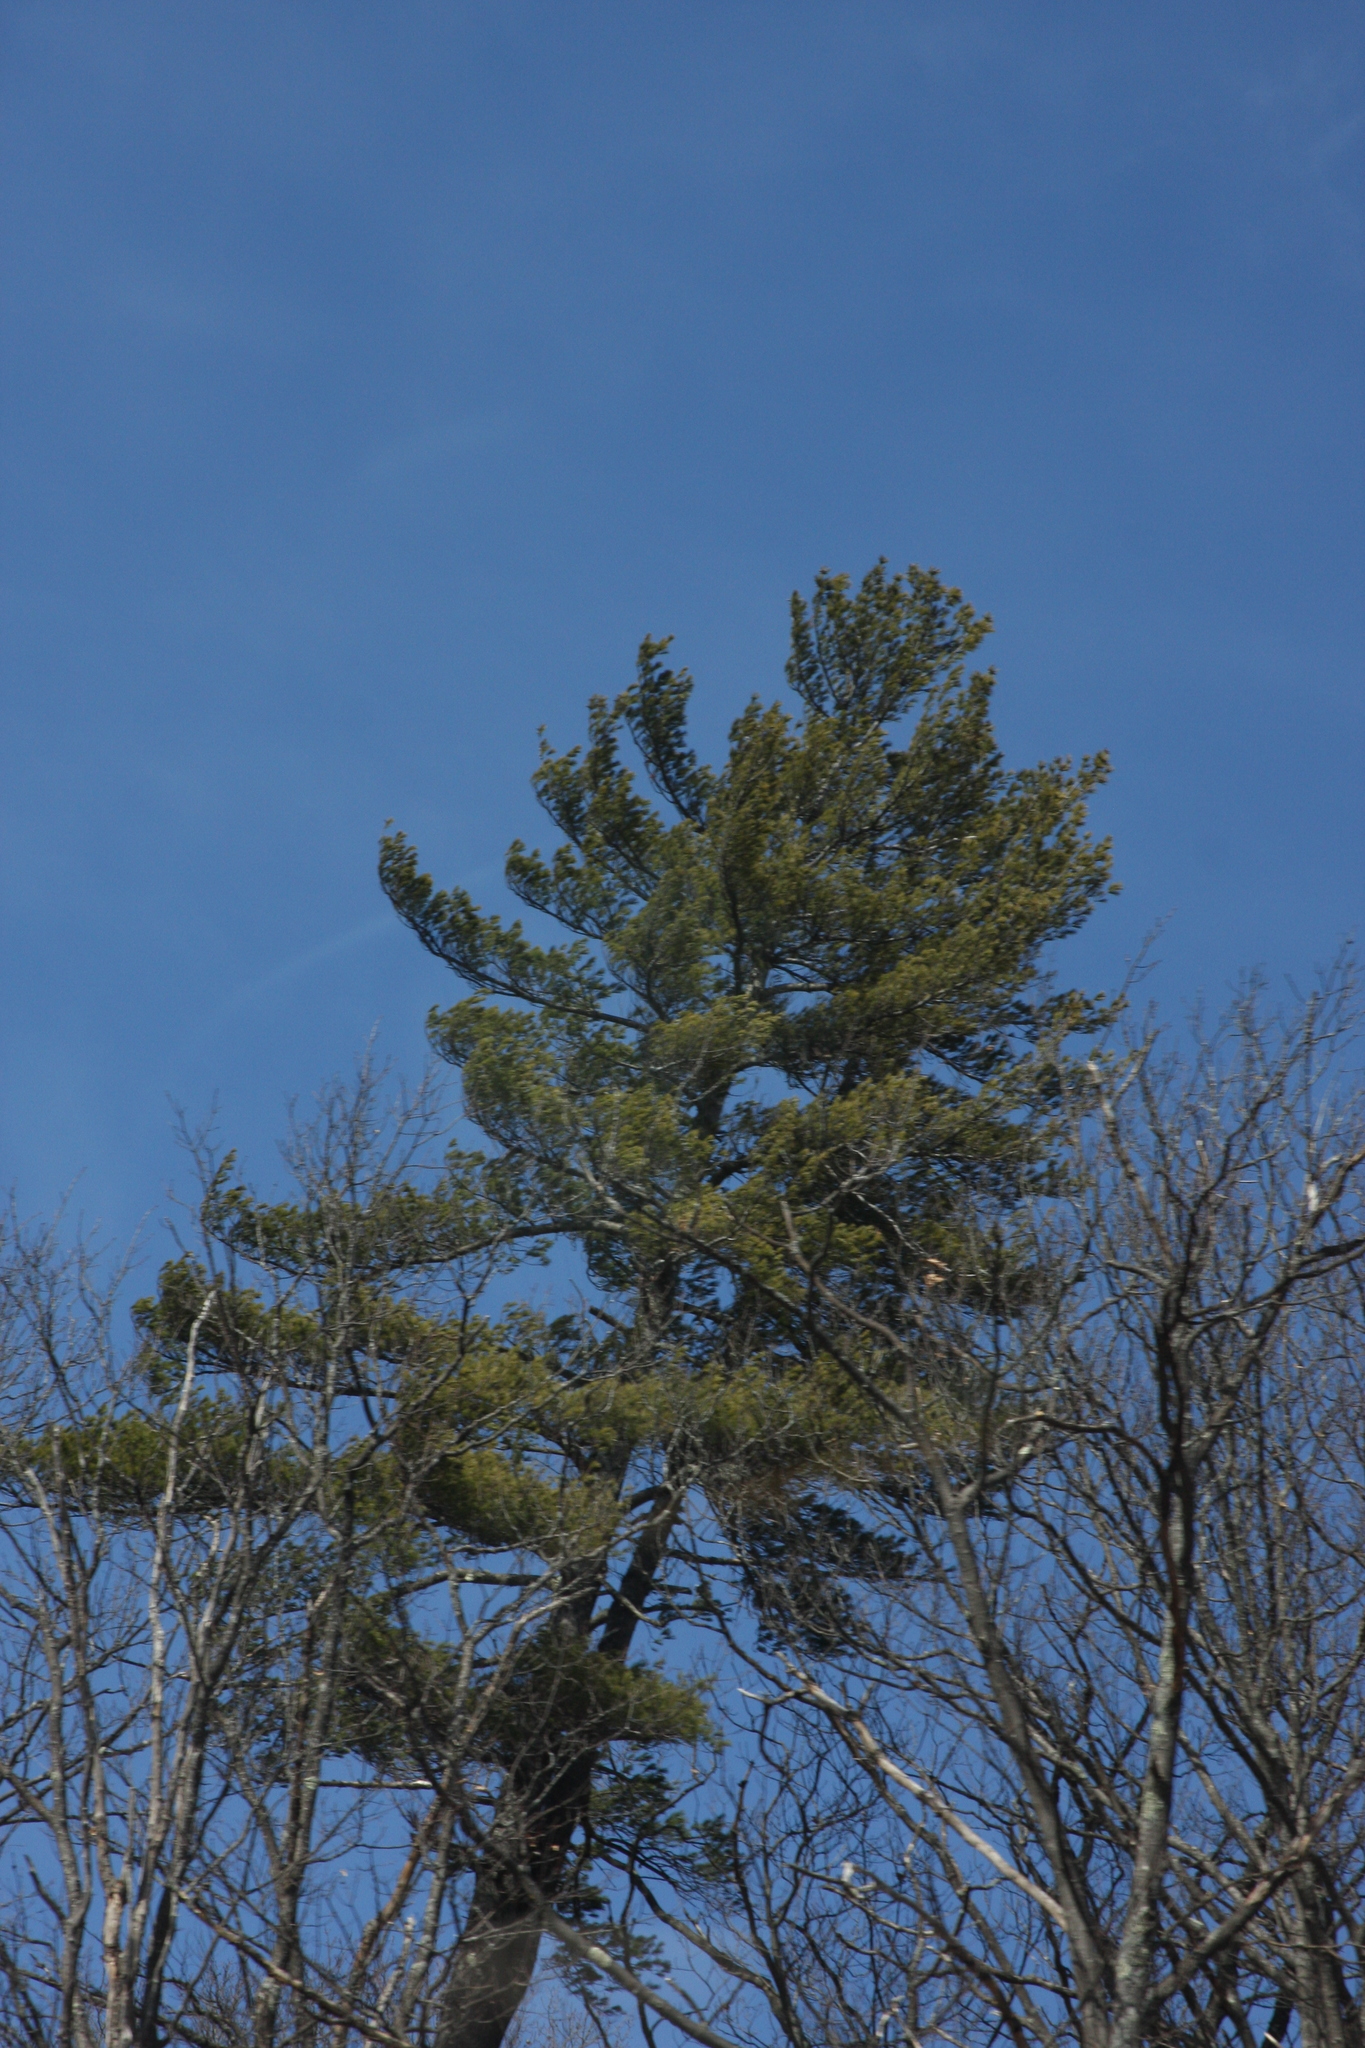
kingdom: Plantae
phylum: Tracheophyta
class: Pinopsida
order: Pinales
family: Pinaceae
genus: Pinus
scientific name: Pinus strobus
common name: Weymouth pine
